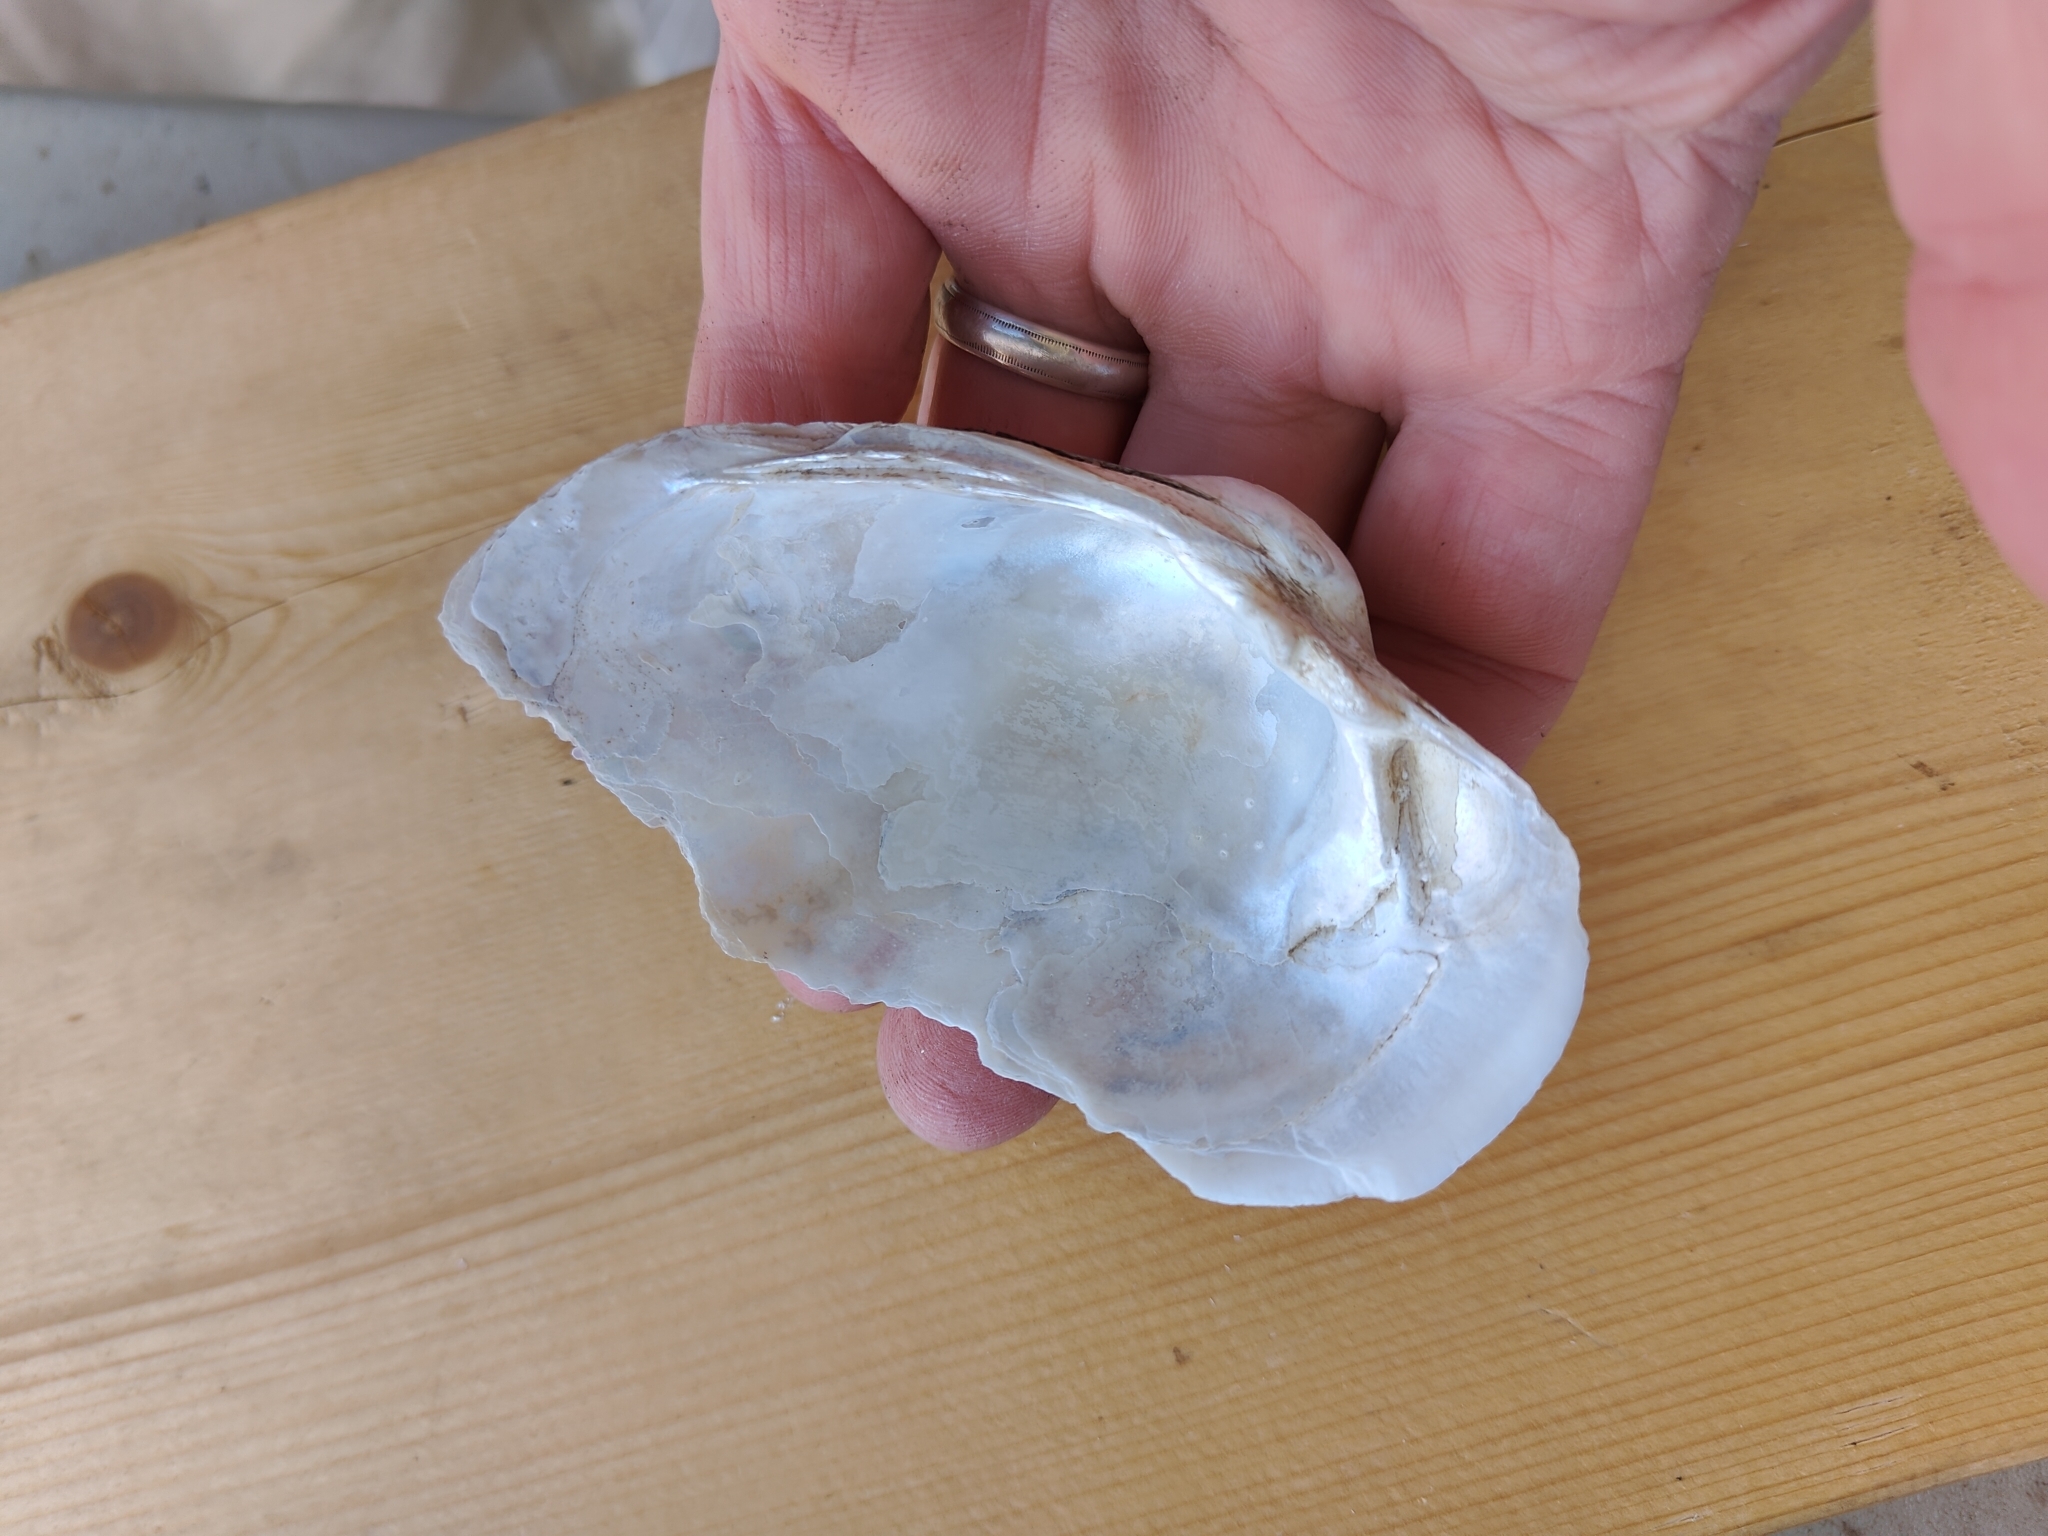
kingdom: Animalia
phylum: Mollusca
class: Bivalvia
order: Unionida
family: Unionidae
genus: Lampsilis
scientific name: Lampsilis cardium
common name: Plain pocketbook
